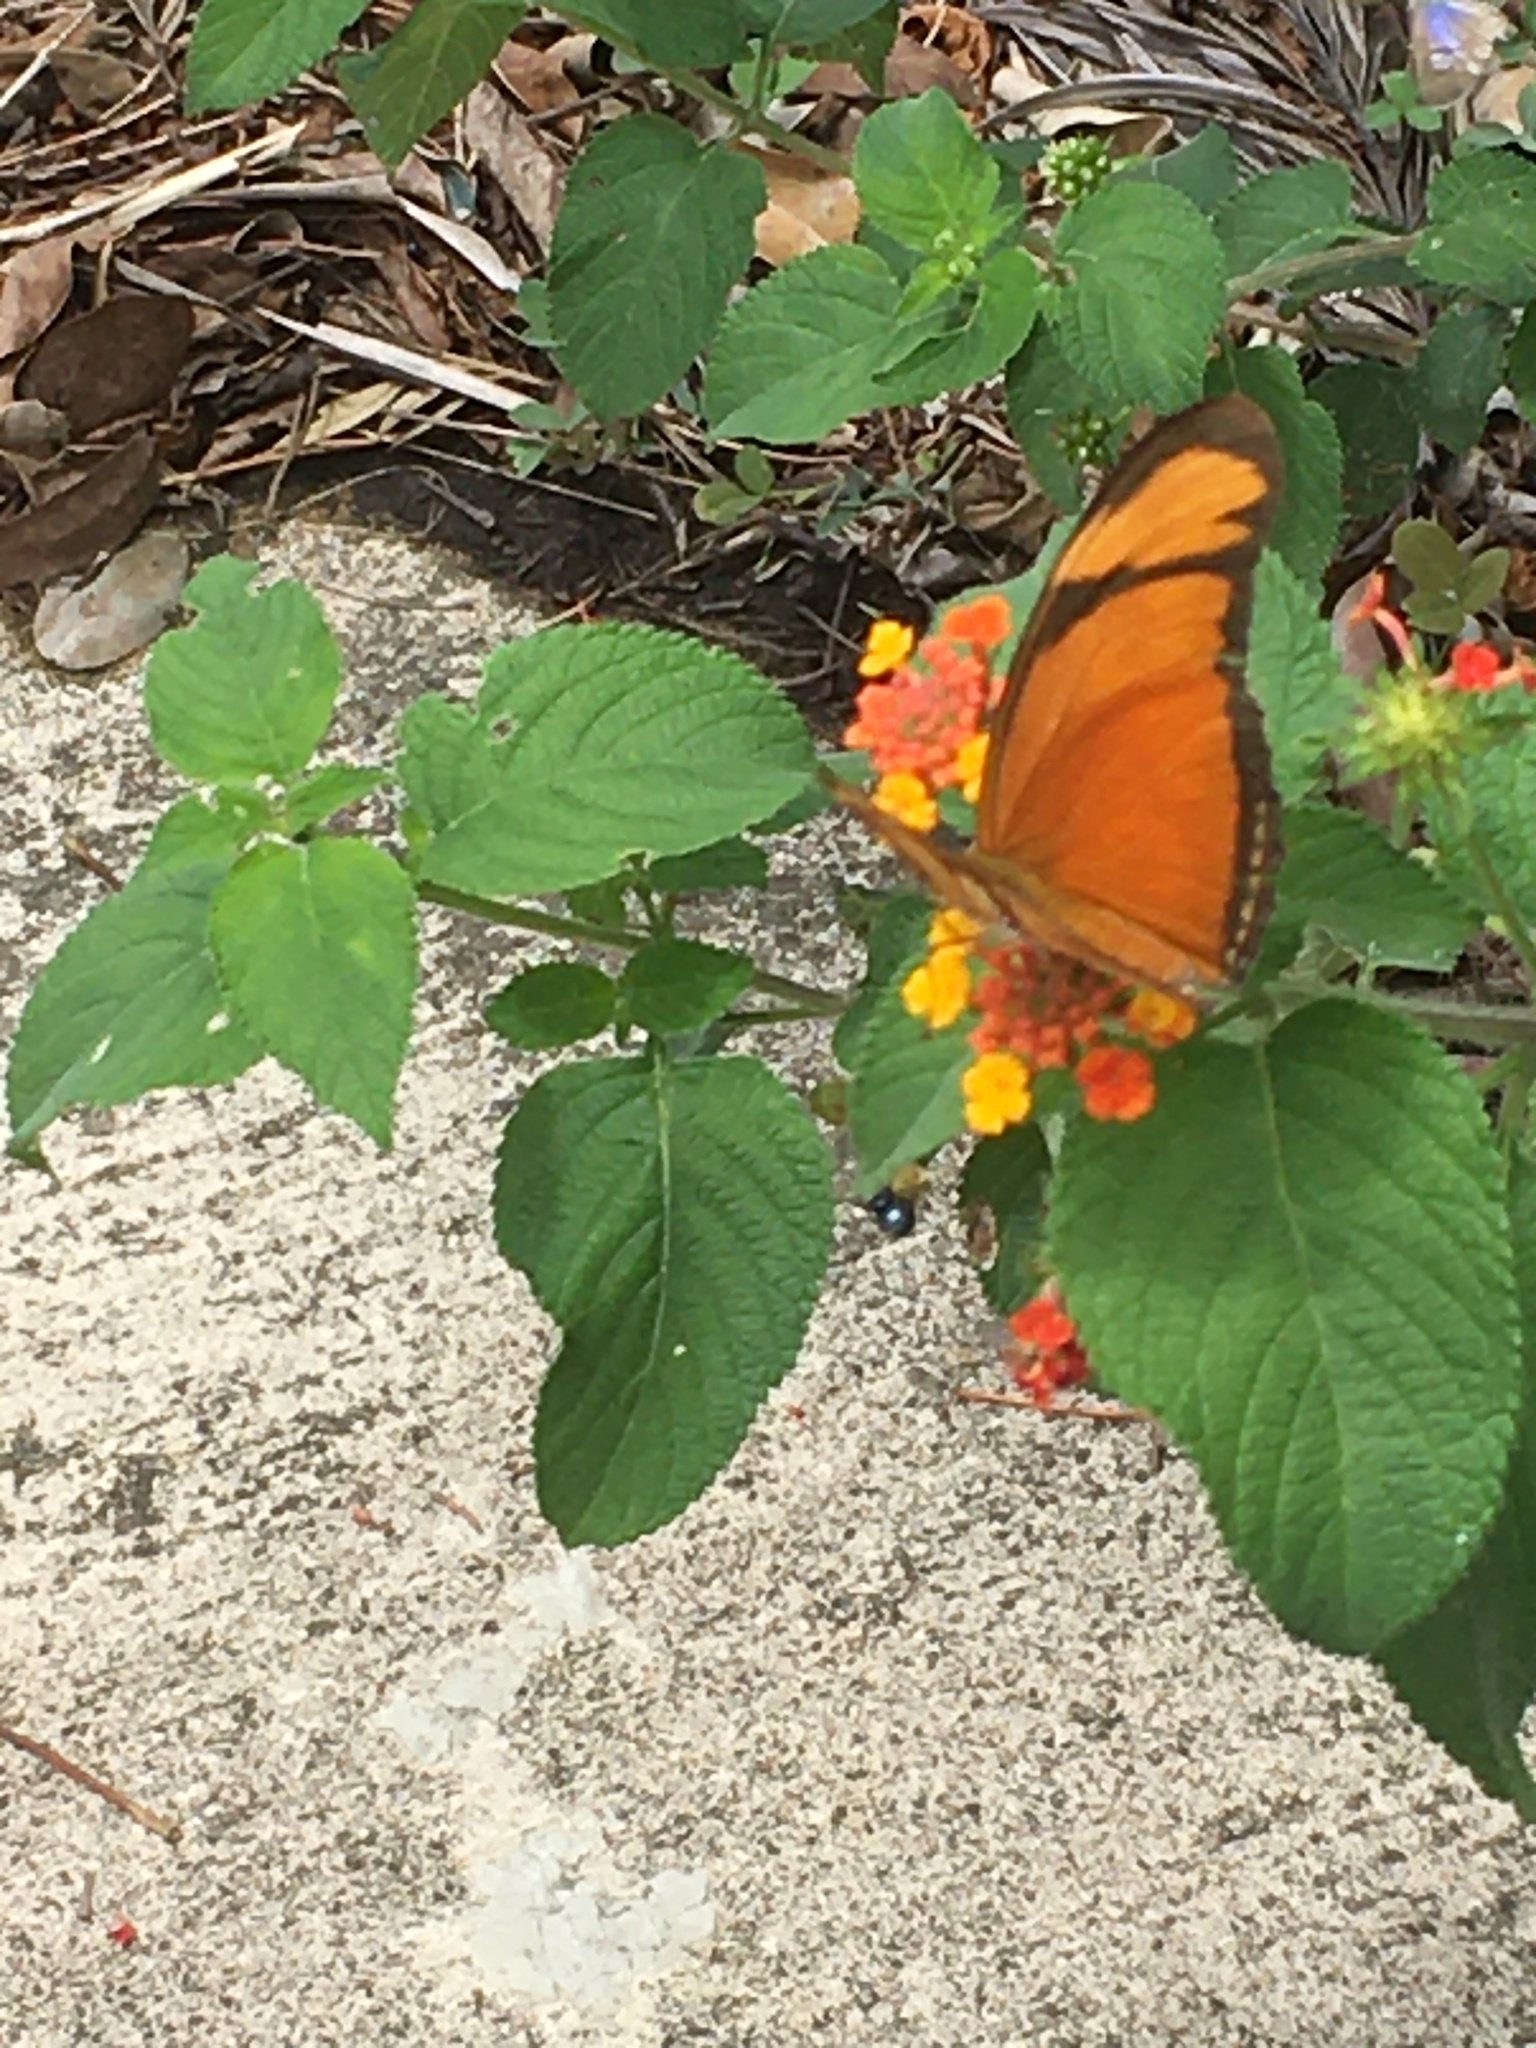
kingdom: Animalia
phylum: Arthropoda
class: Insecta
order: Lepidoptera
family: Nymphalidae
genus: Dryas
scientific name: Dryas iulia
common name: Flambeau
